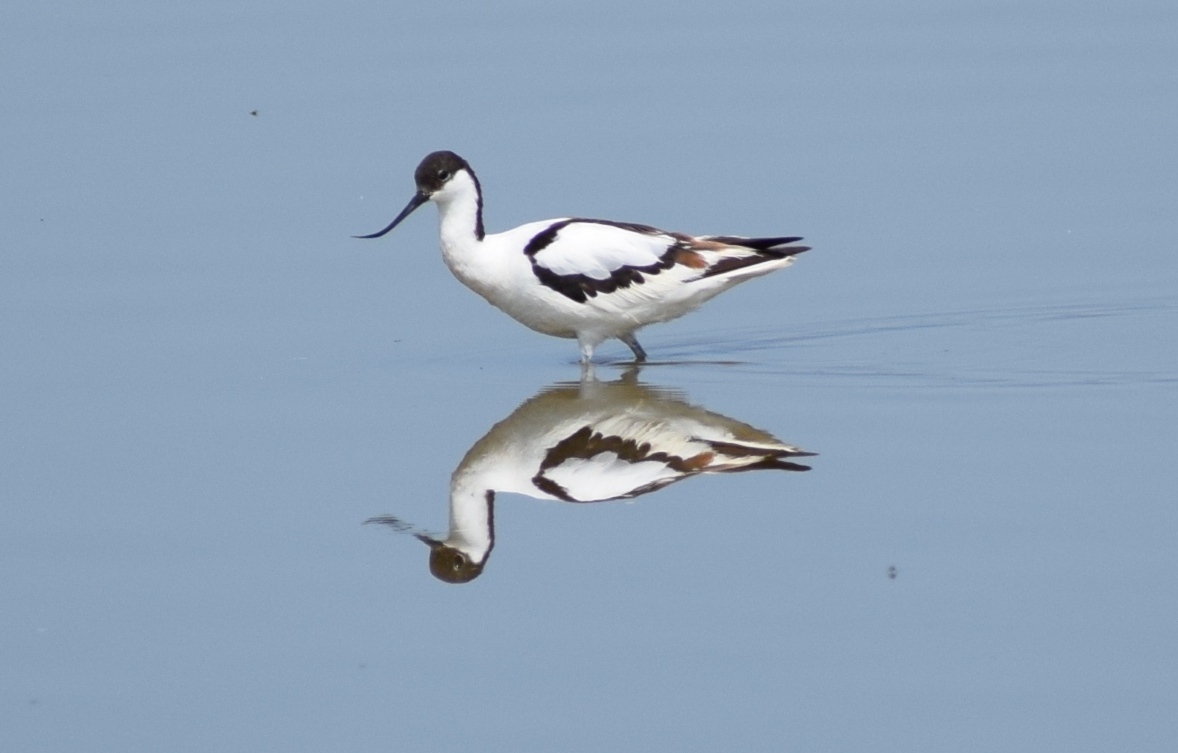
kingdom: Animalia
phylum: Chordata
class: Aves
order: Charadriiformes
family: Recurvirostridae
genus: Recurvirostra
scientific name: Recurvirostra avosetta
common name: Pied avocet
